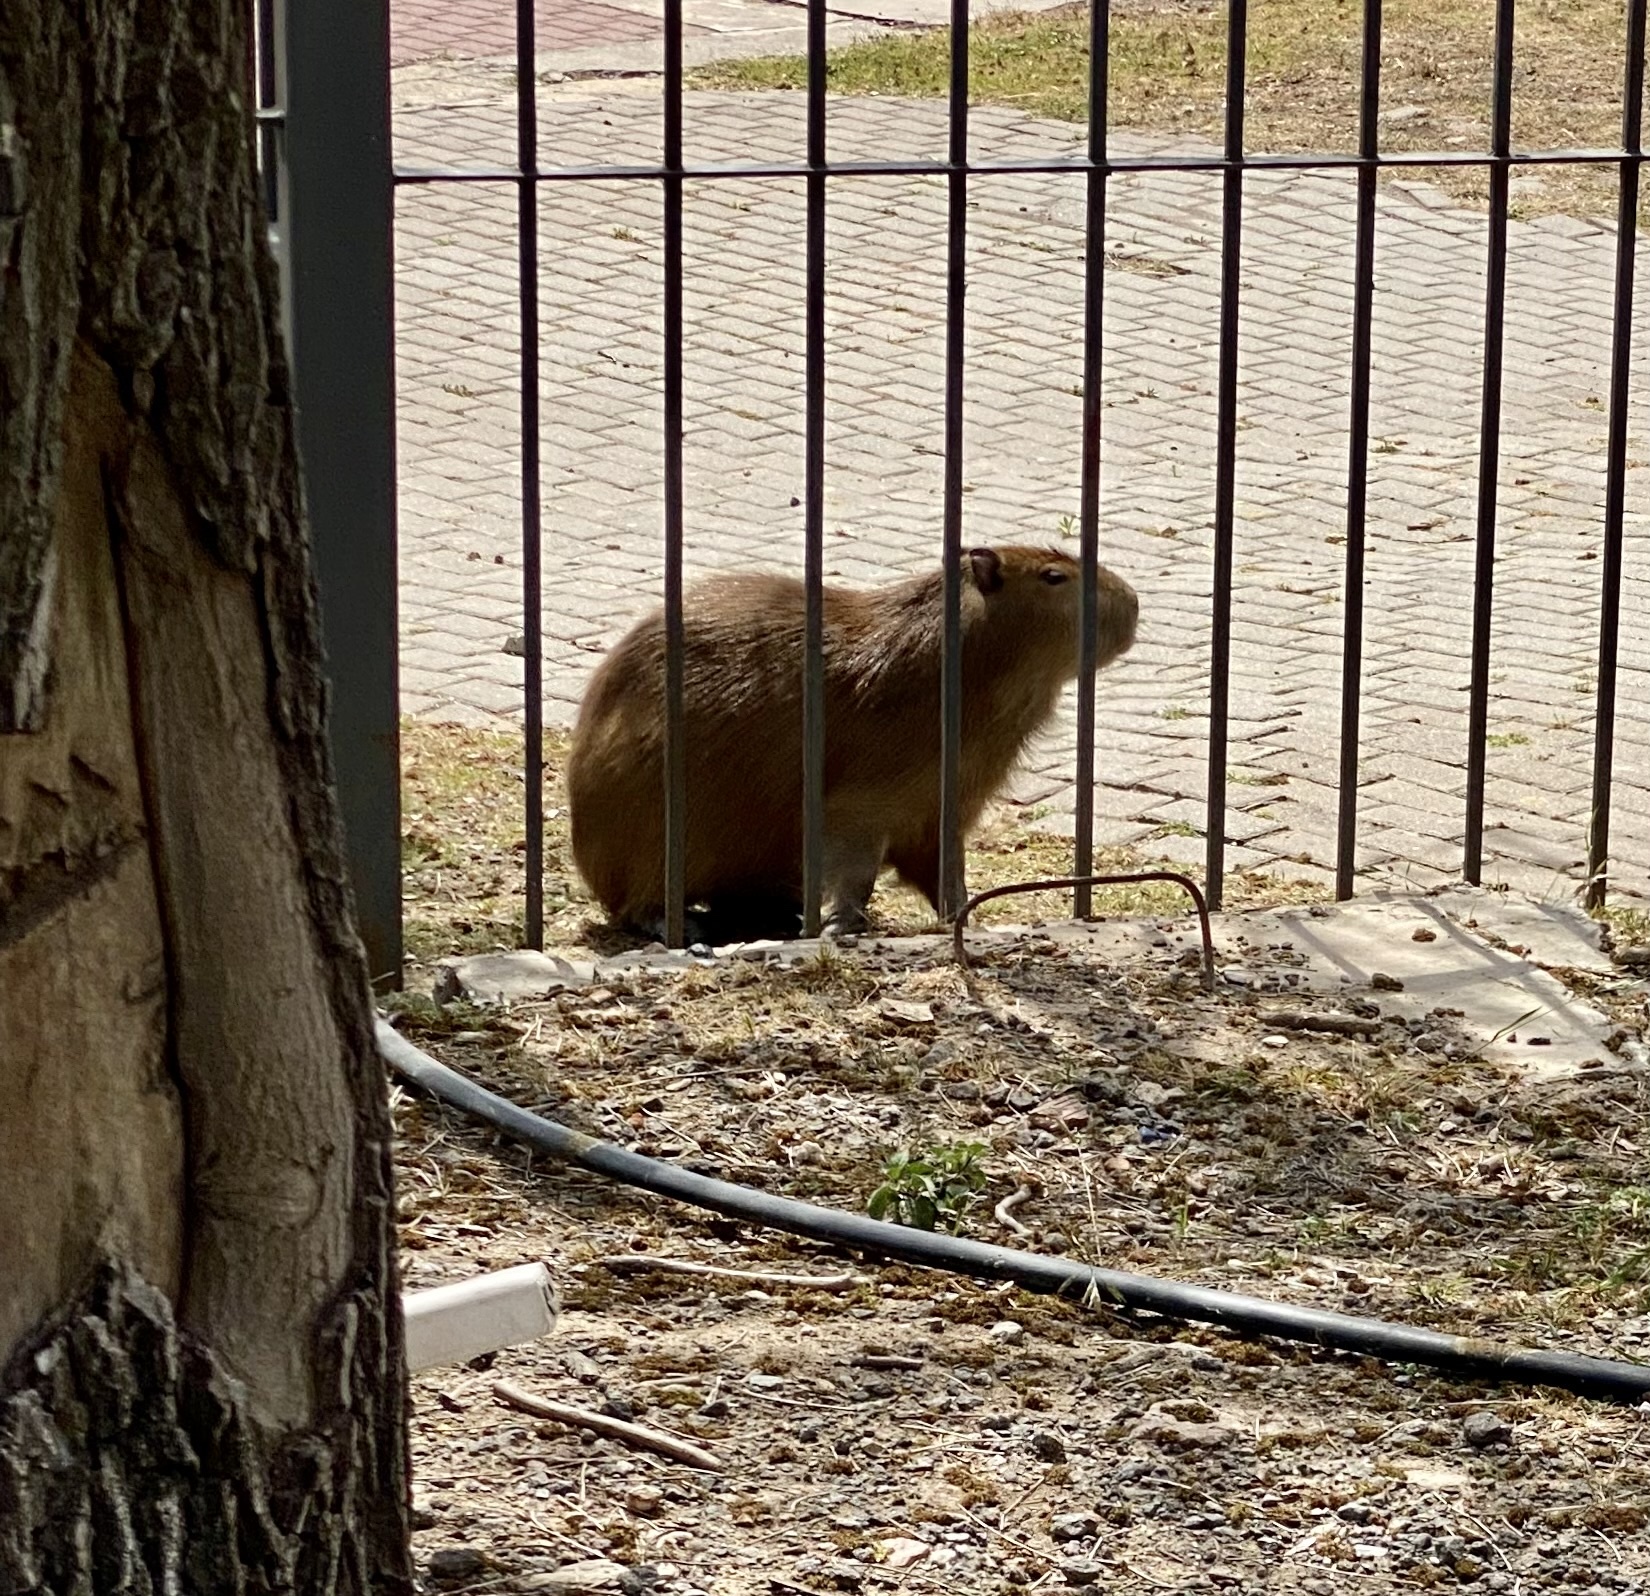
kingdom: Animalia
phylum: Chordata
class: Mammalia
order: Rodentia
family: Caviidae
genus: Hydrochoerus
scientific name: Hydrochoerus hydrochaeris
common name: Capybara
